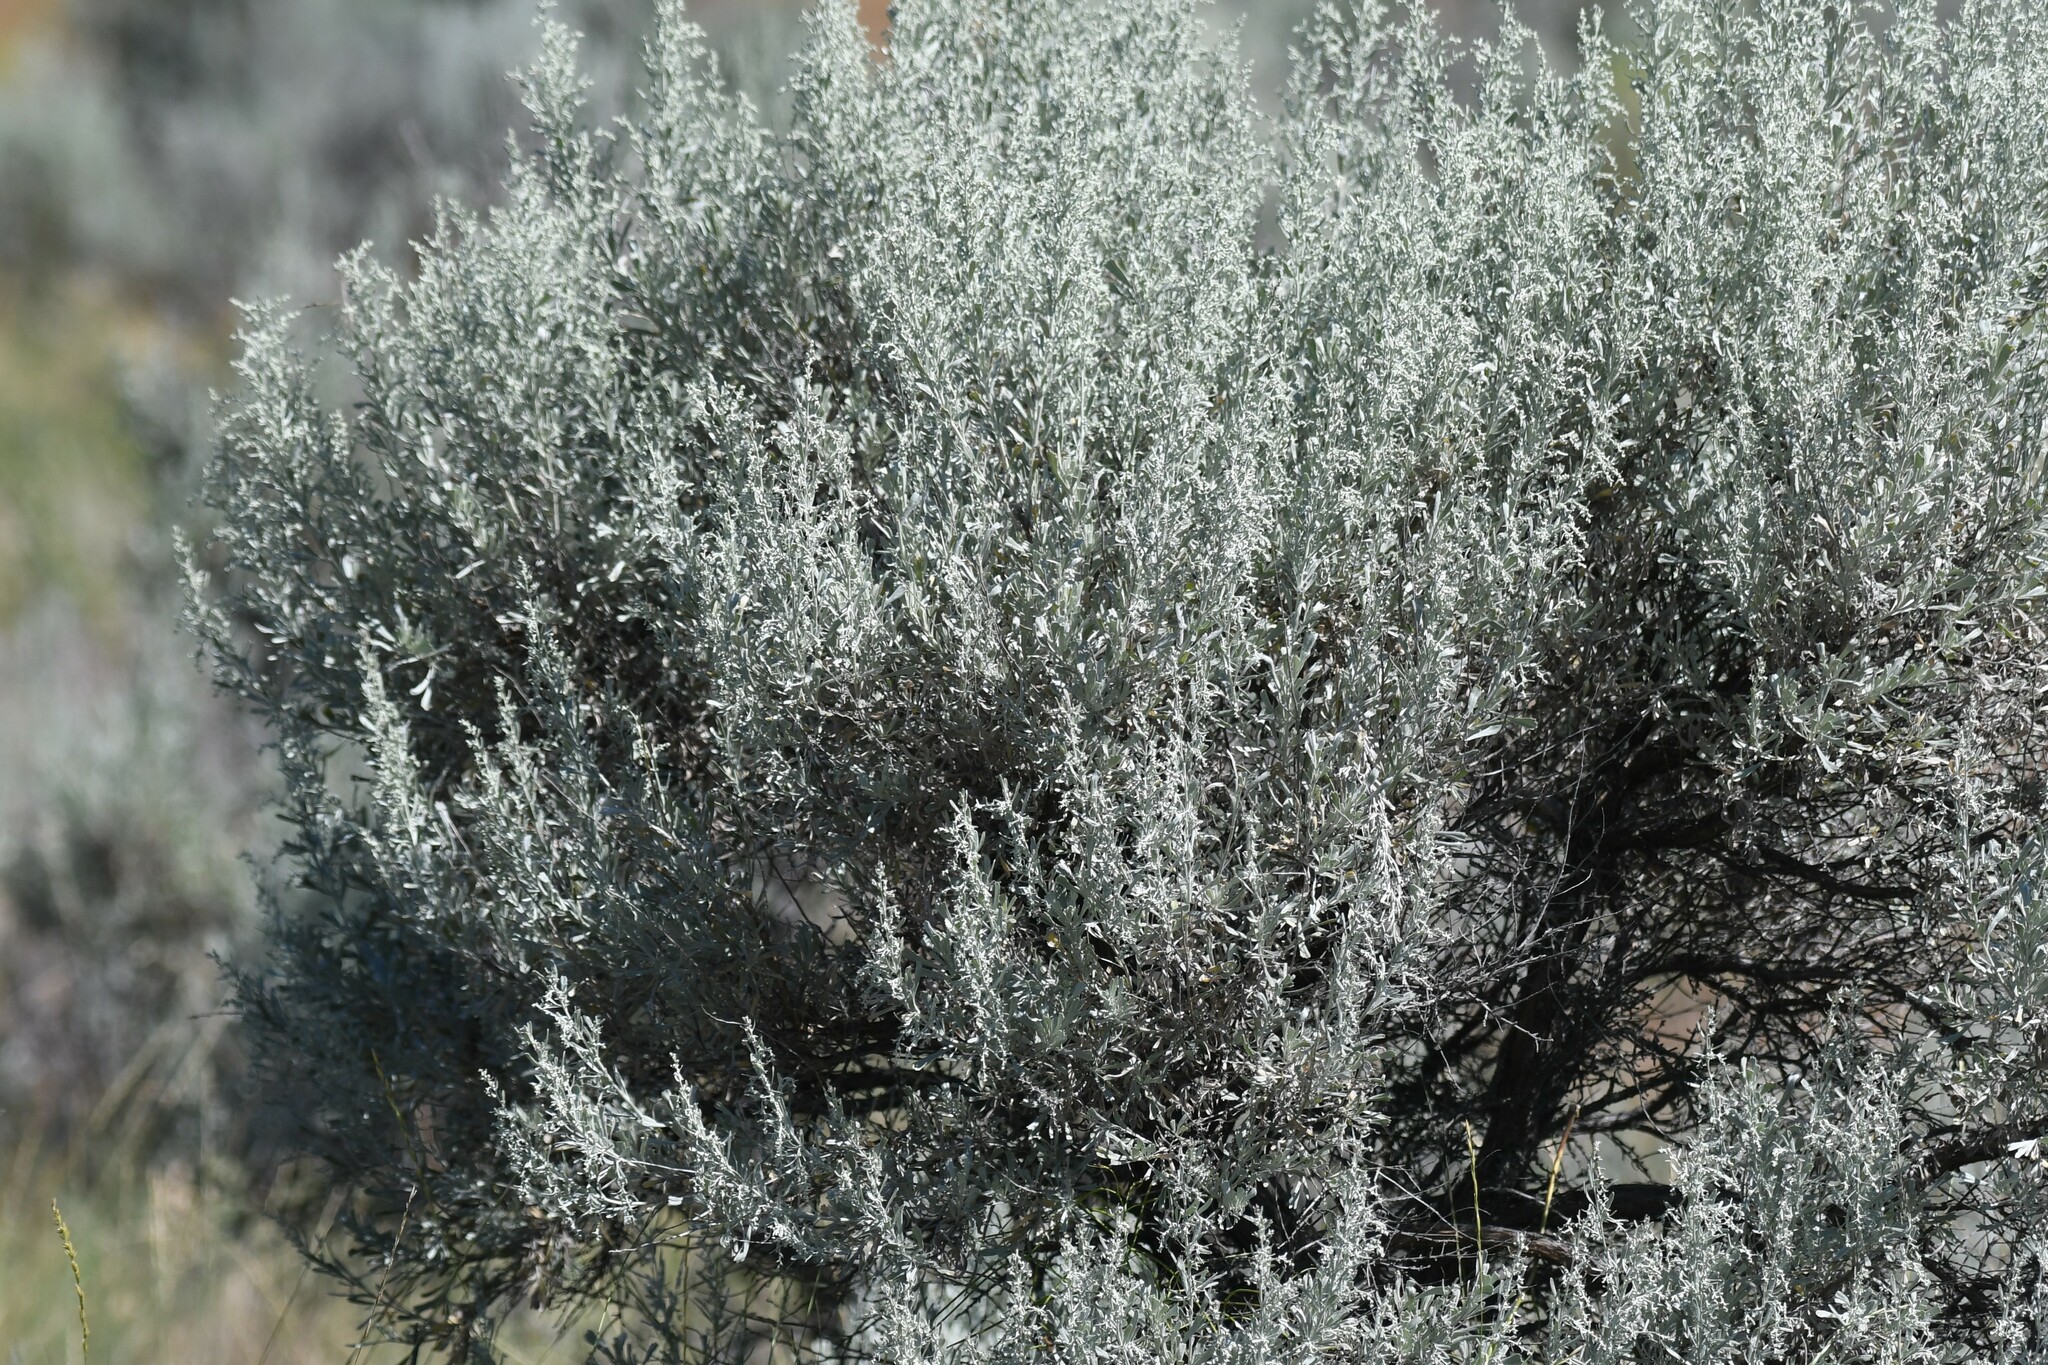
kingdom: Plantae
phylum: Tracheophyta
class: Magnoliopsida
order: Asterales
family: Asteraceae
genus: Artemisia
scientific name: Artemisia tridentata
